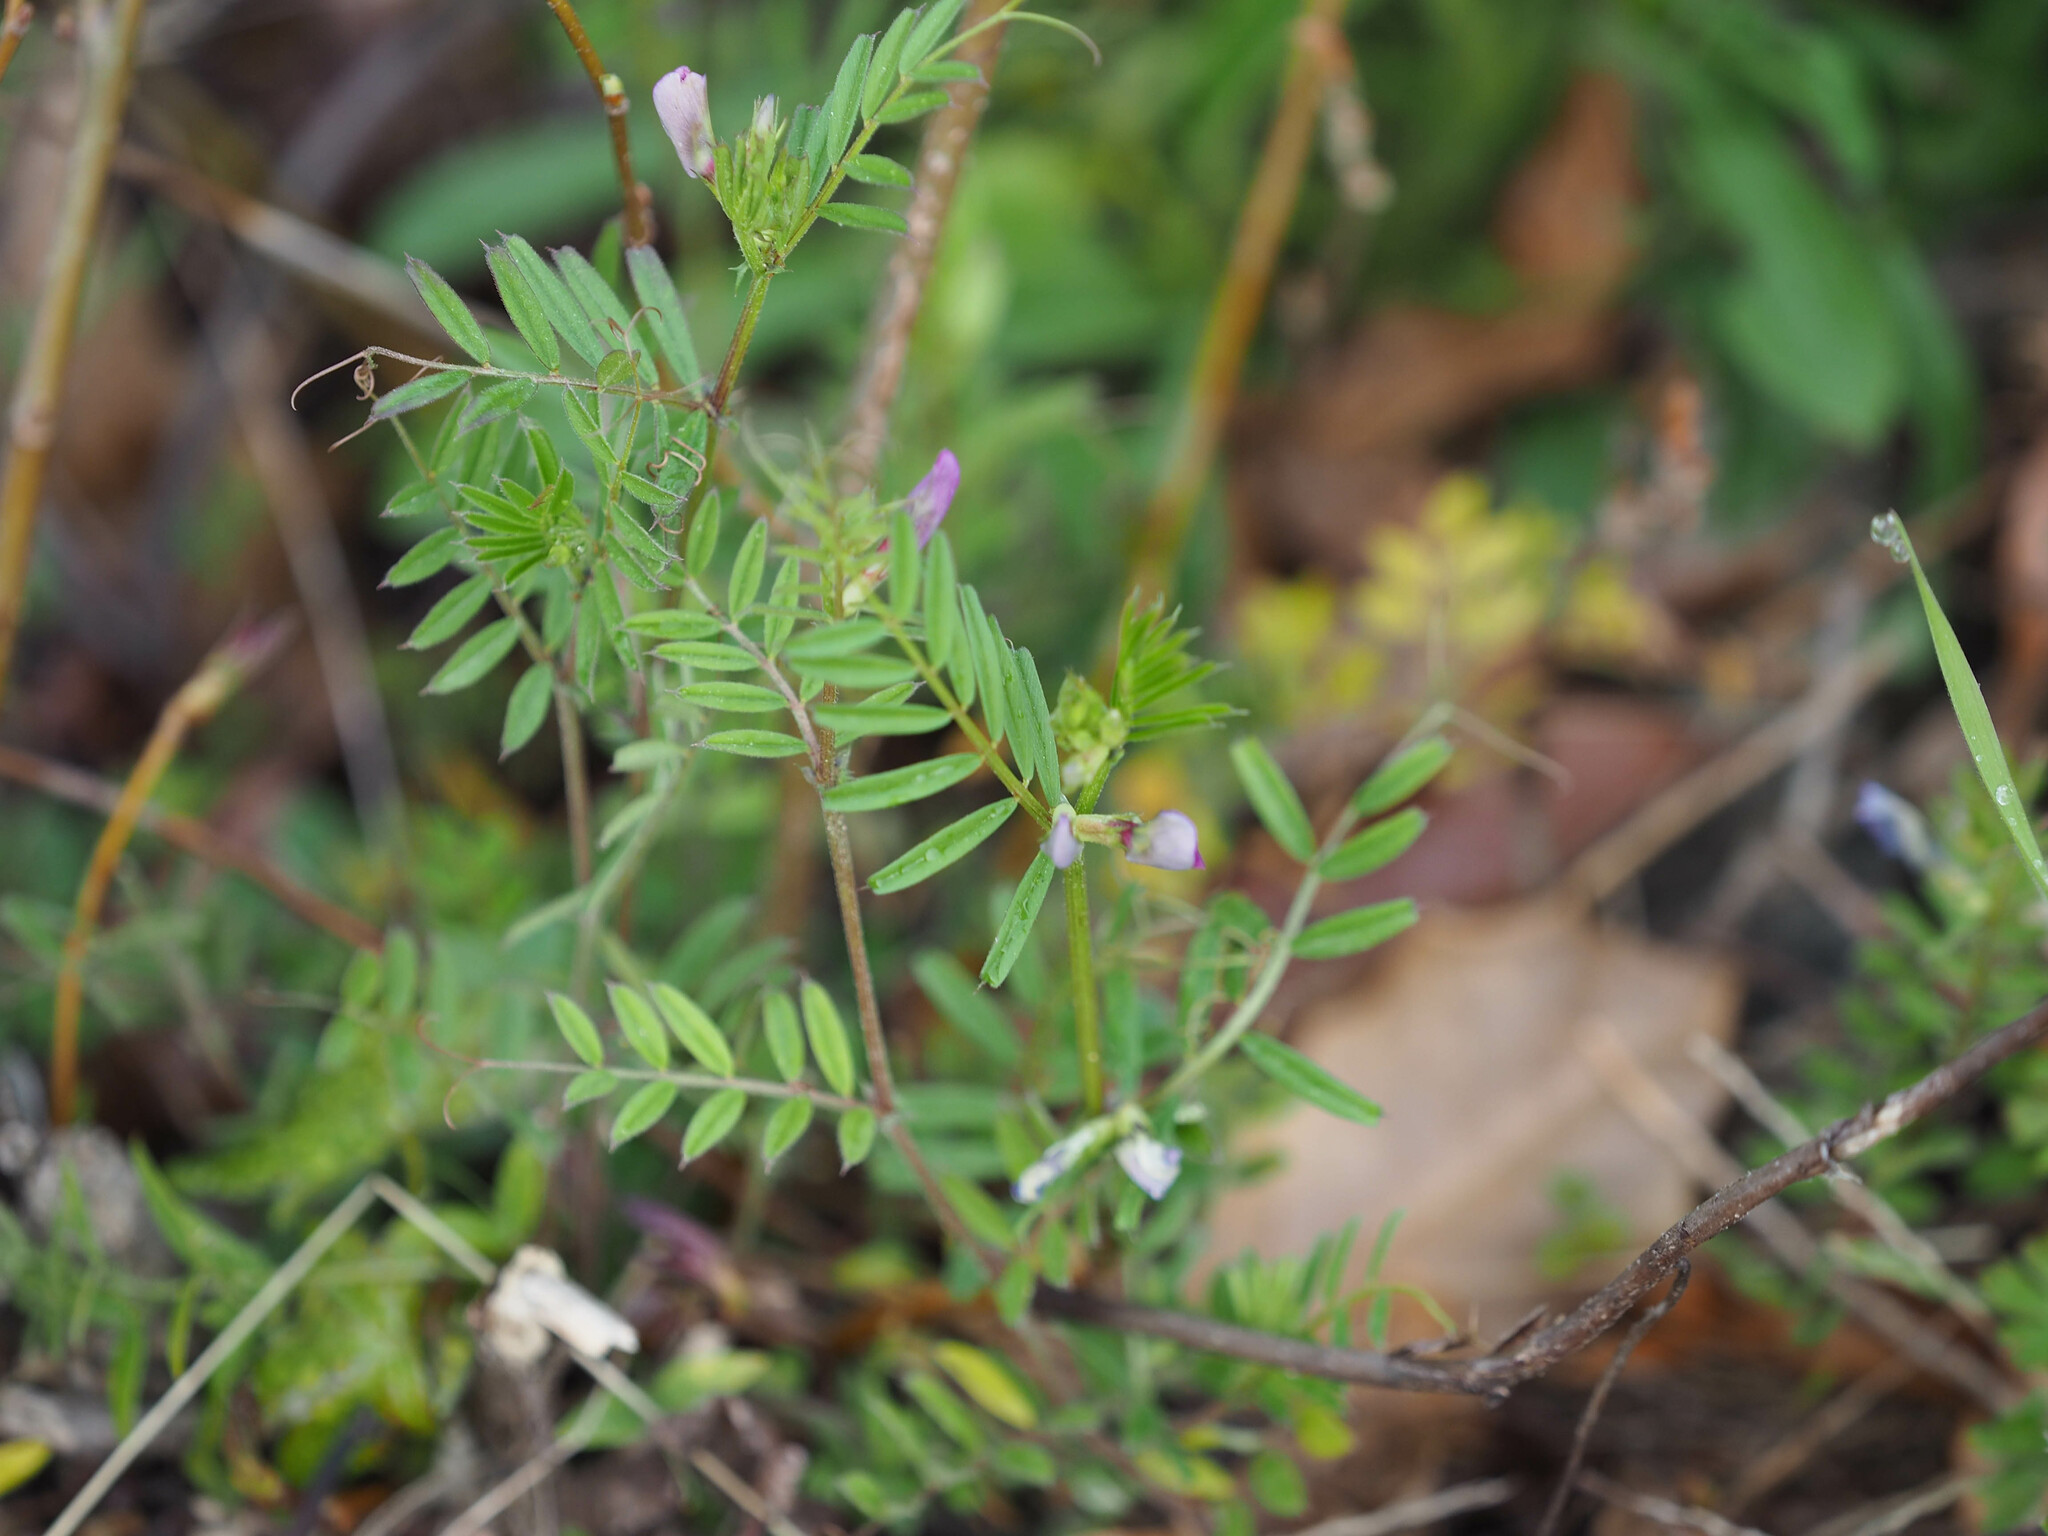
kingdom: Plantae
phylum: Tracheophyta
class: Magnoliopsida
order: Fabales
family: Fabaceae
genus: Vicia
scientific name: Vicia sativa
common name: Garden vetch
